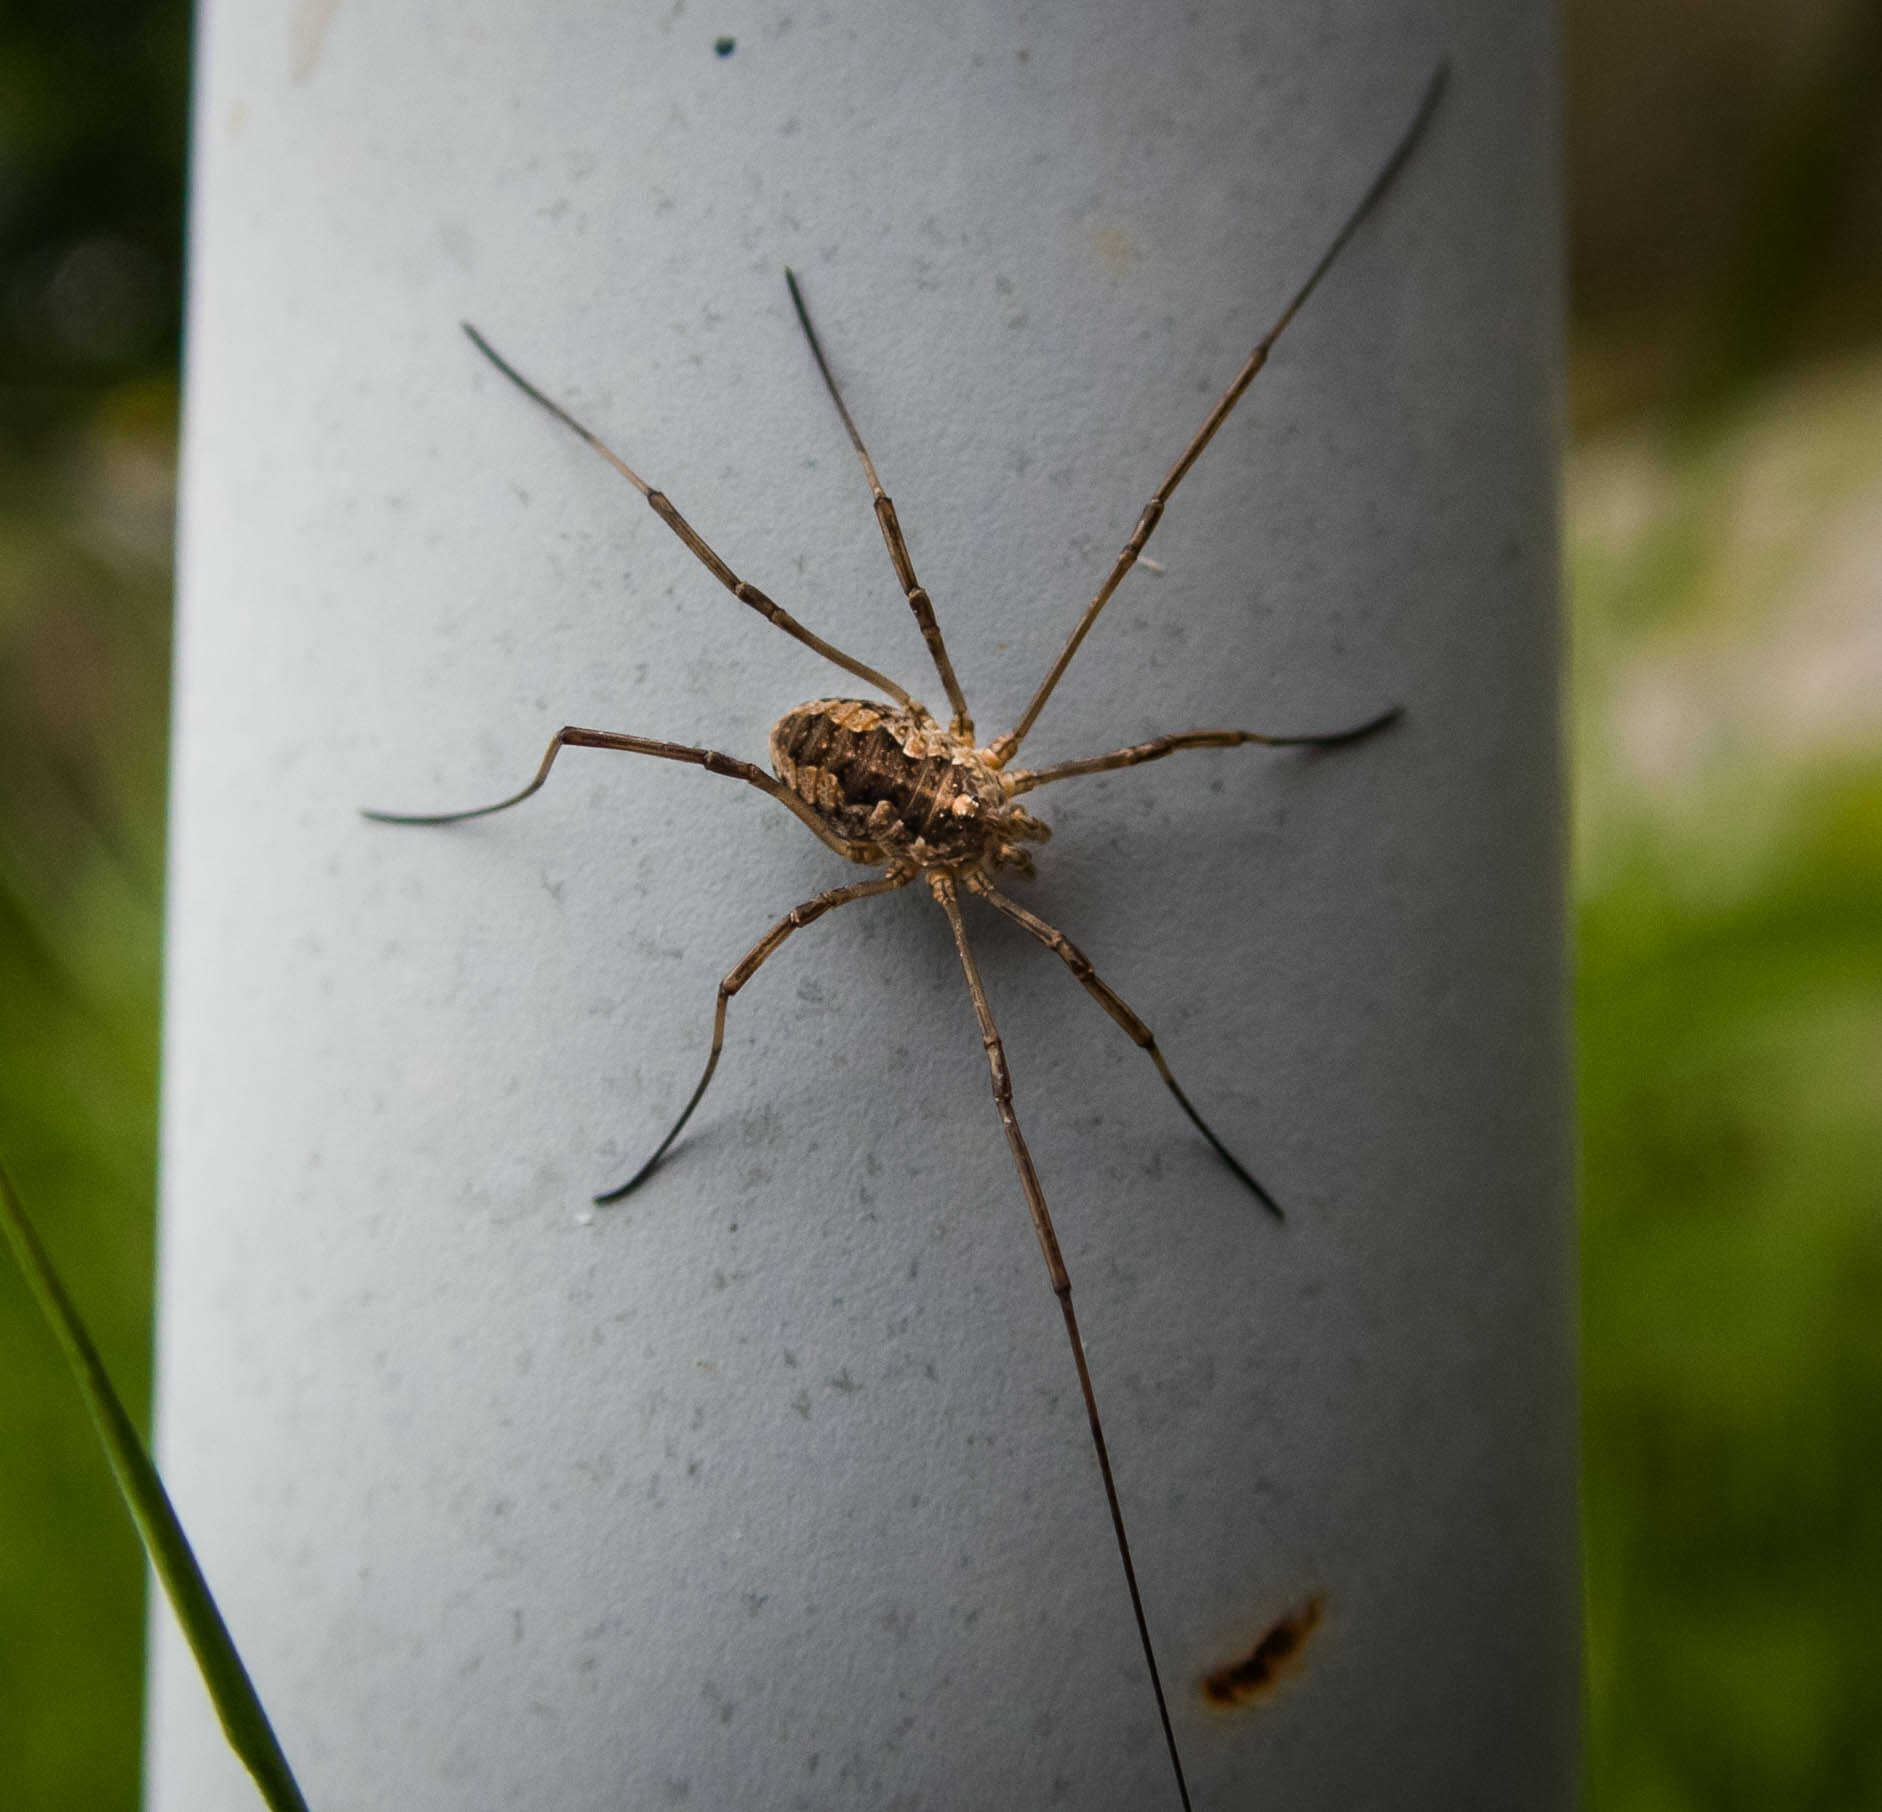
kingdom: Animalia
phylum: Arthropoda
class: Arachnida
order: Opiliones
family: Phalangiidae
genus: Phalangium
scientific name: Phalangium opilio
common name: Daddy longleg
